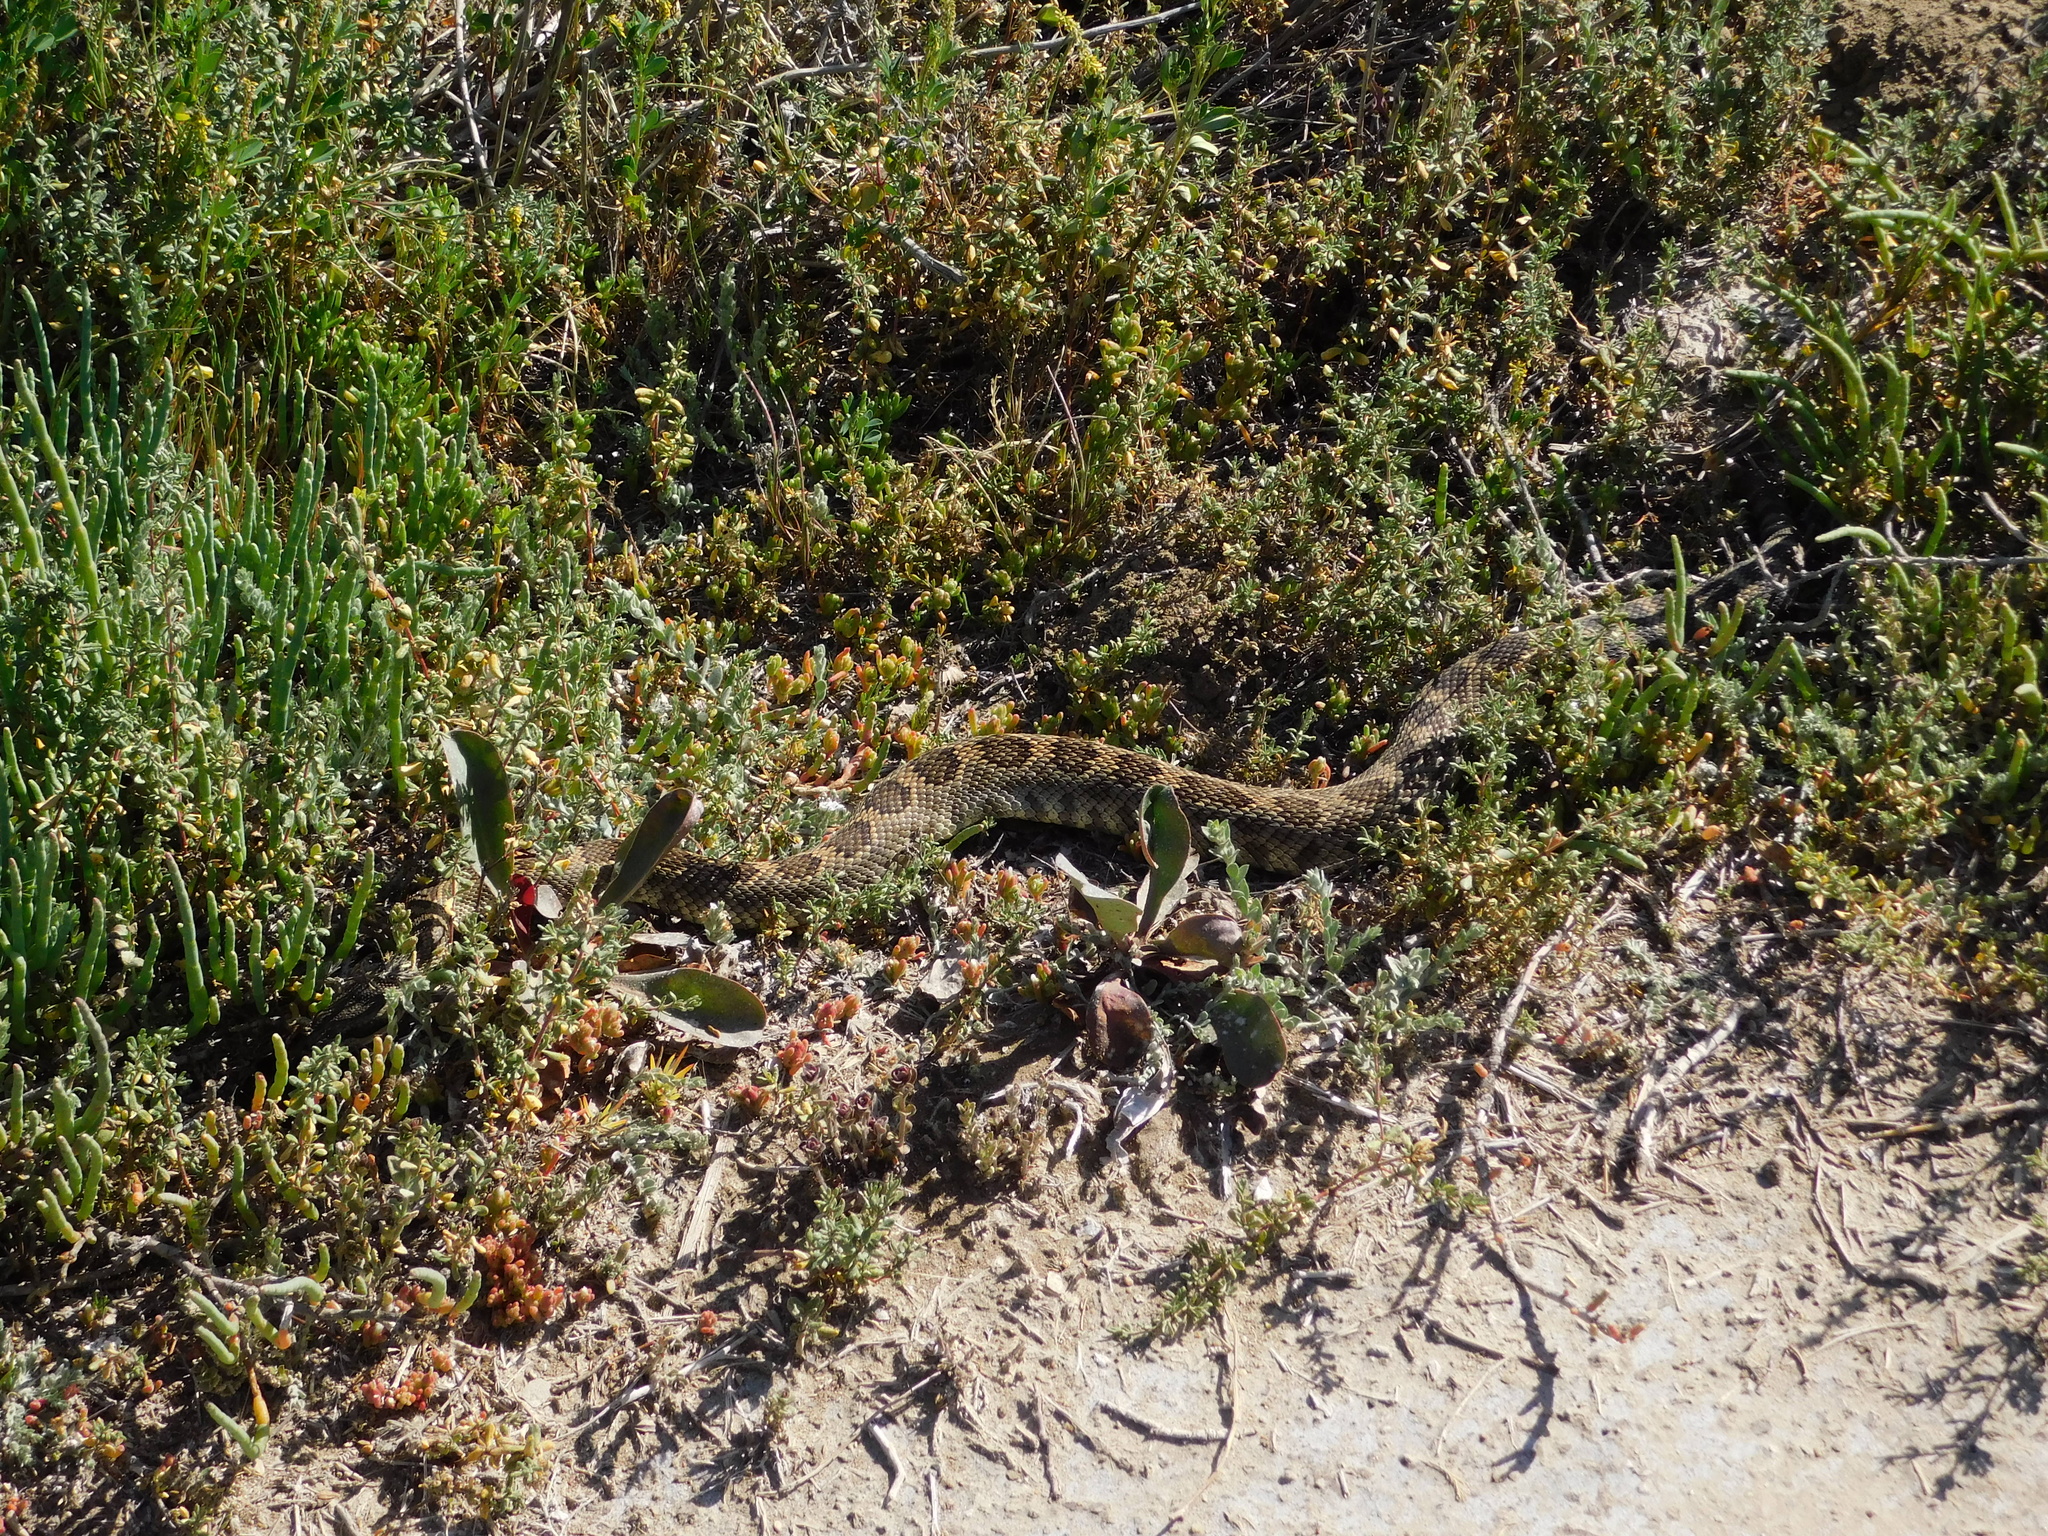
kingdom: Animalia
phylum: Chordata
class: Squamata
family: Viperidae
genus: Crotalus
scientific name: Crotalus oreganus
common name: Abyssus
